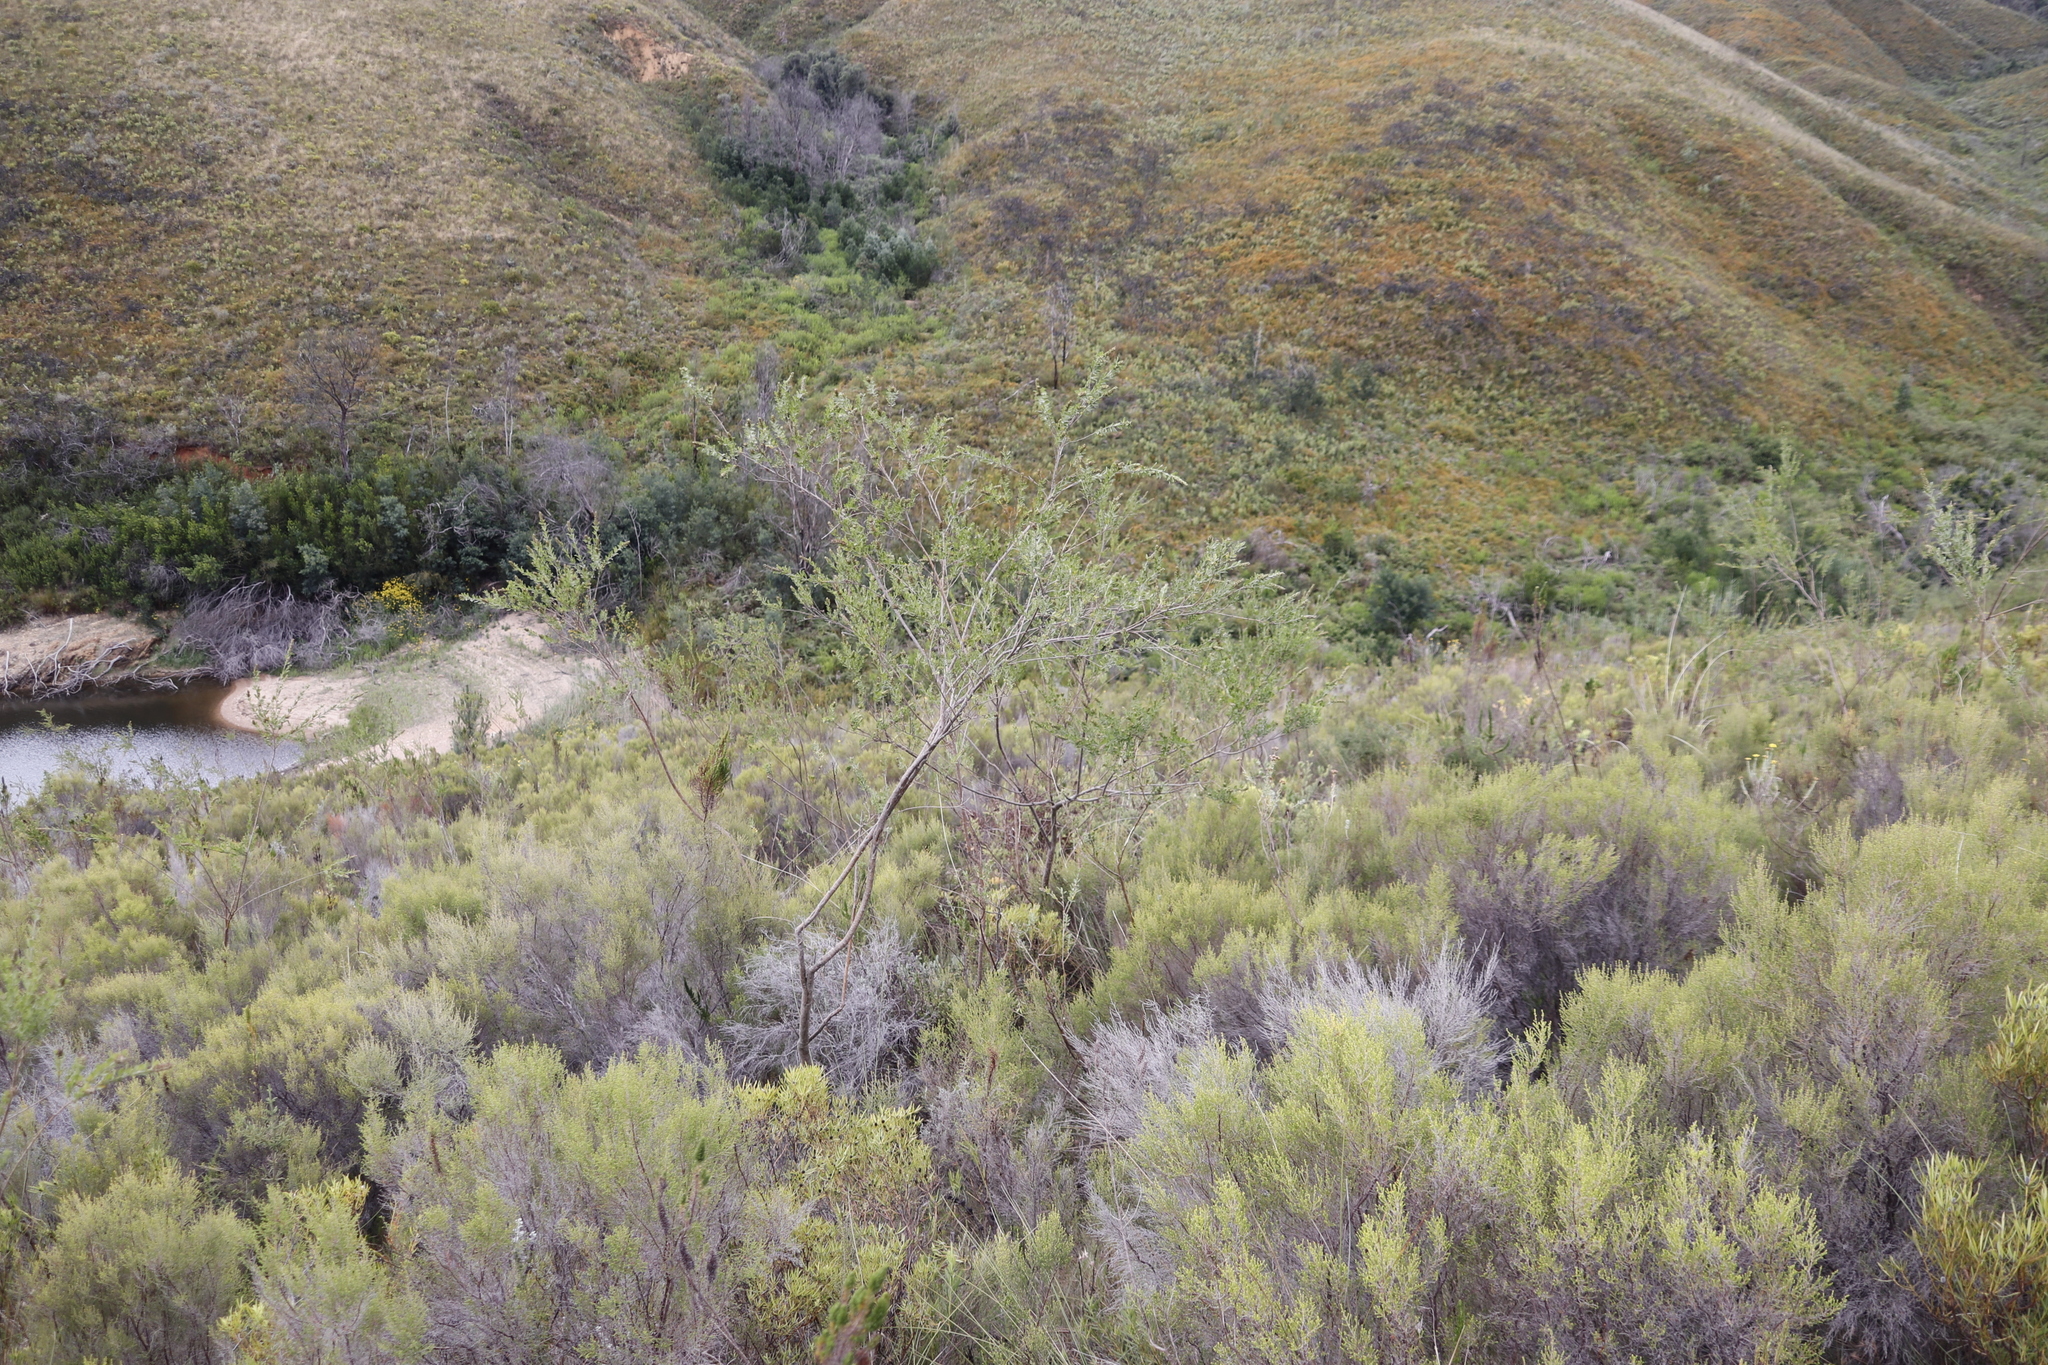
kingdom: Plantae
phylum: Tracheophyta
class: Magnoliopsida
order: Fabales
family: Fabaceae
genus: Psoralea
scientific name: Psoralea spicata
